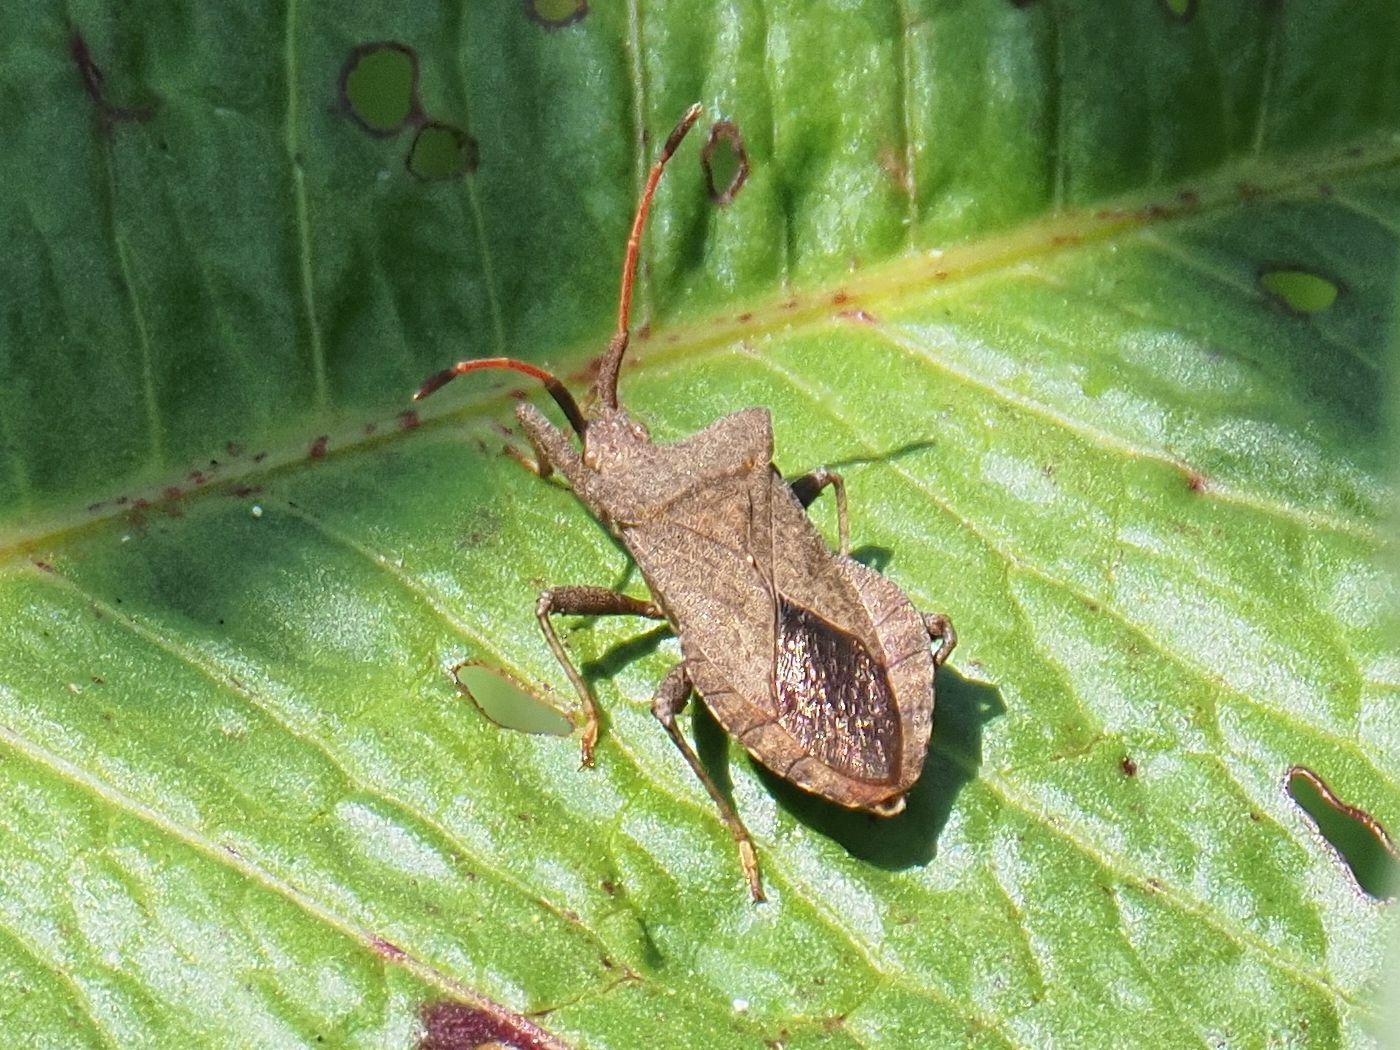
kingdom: Animalia
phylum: Arthropoda
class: Insecta
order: Hemiptera
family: Coreidae
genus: Coreus
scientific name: Coreus marginatus
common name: Dock bug
